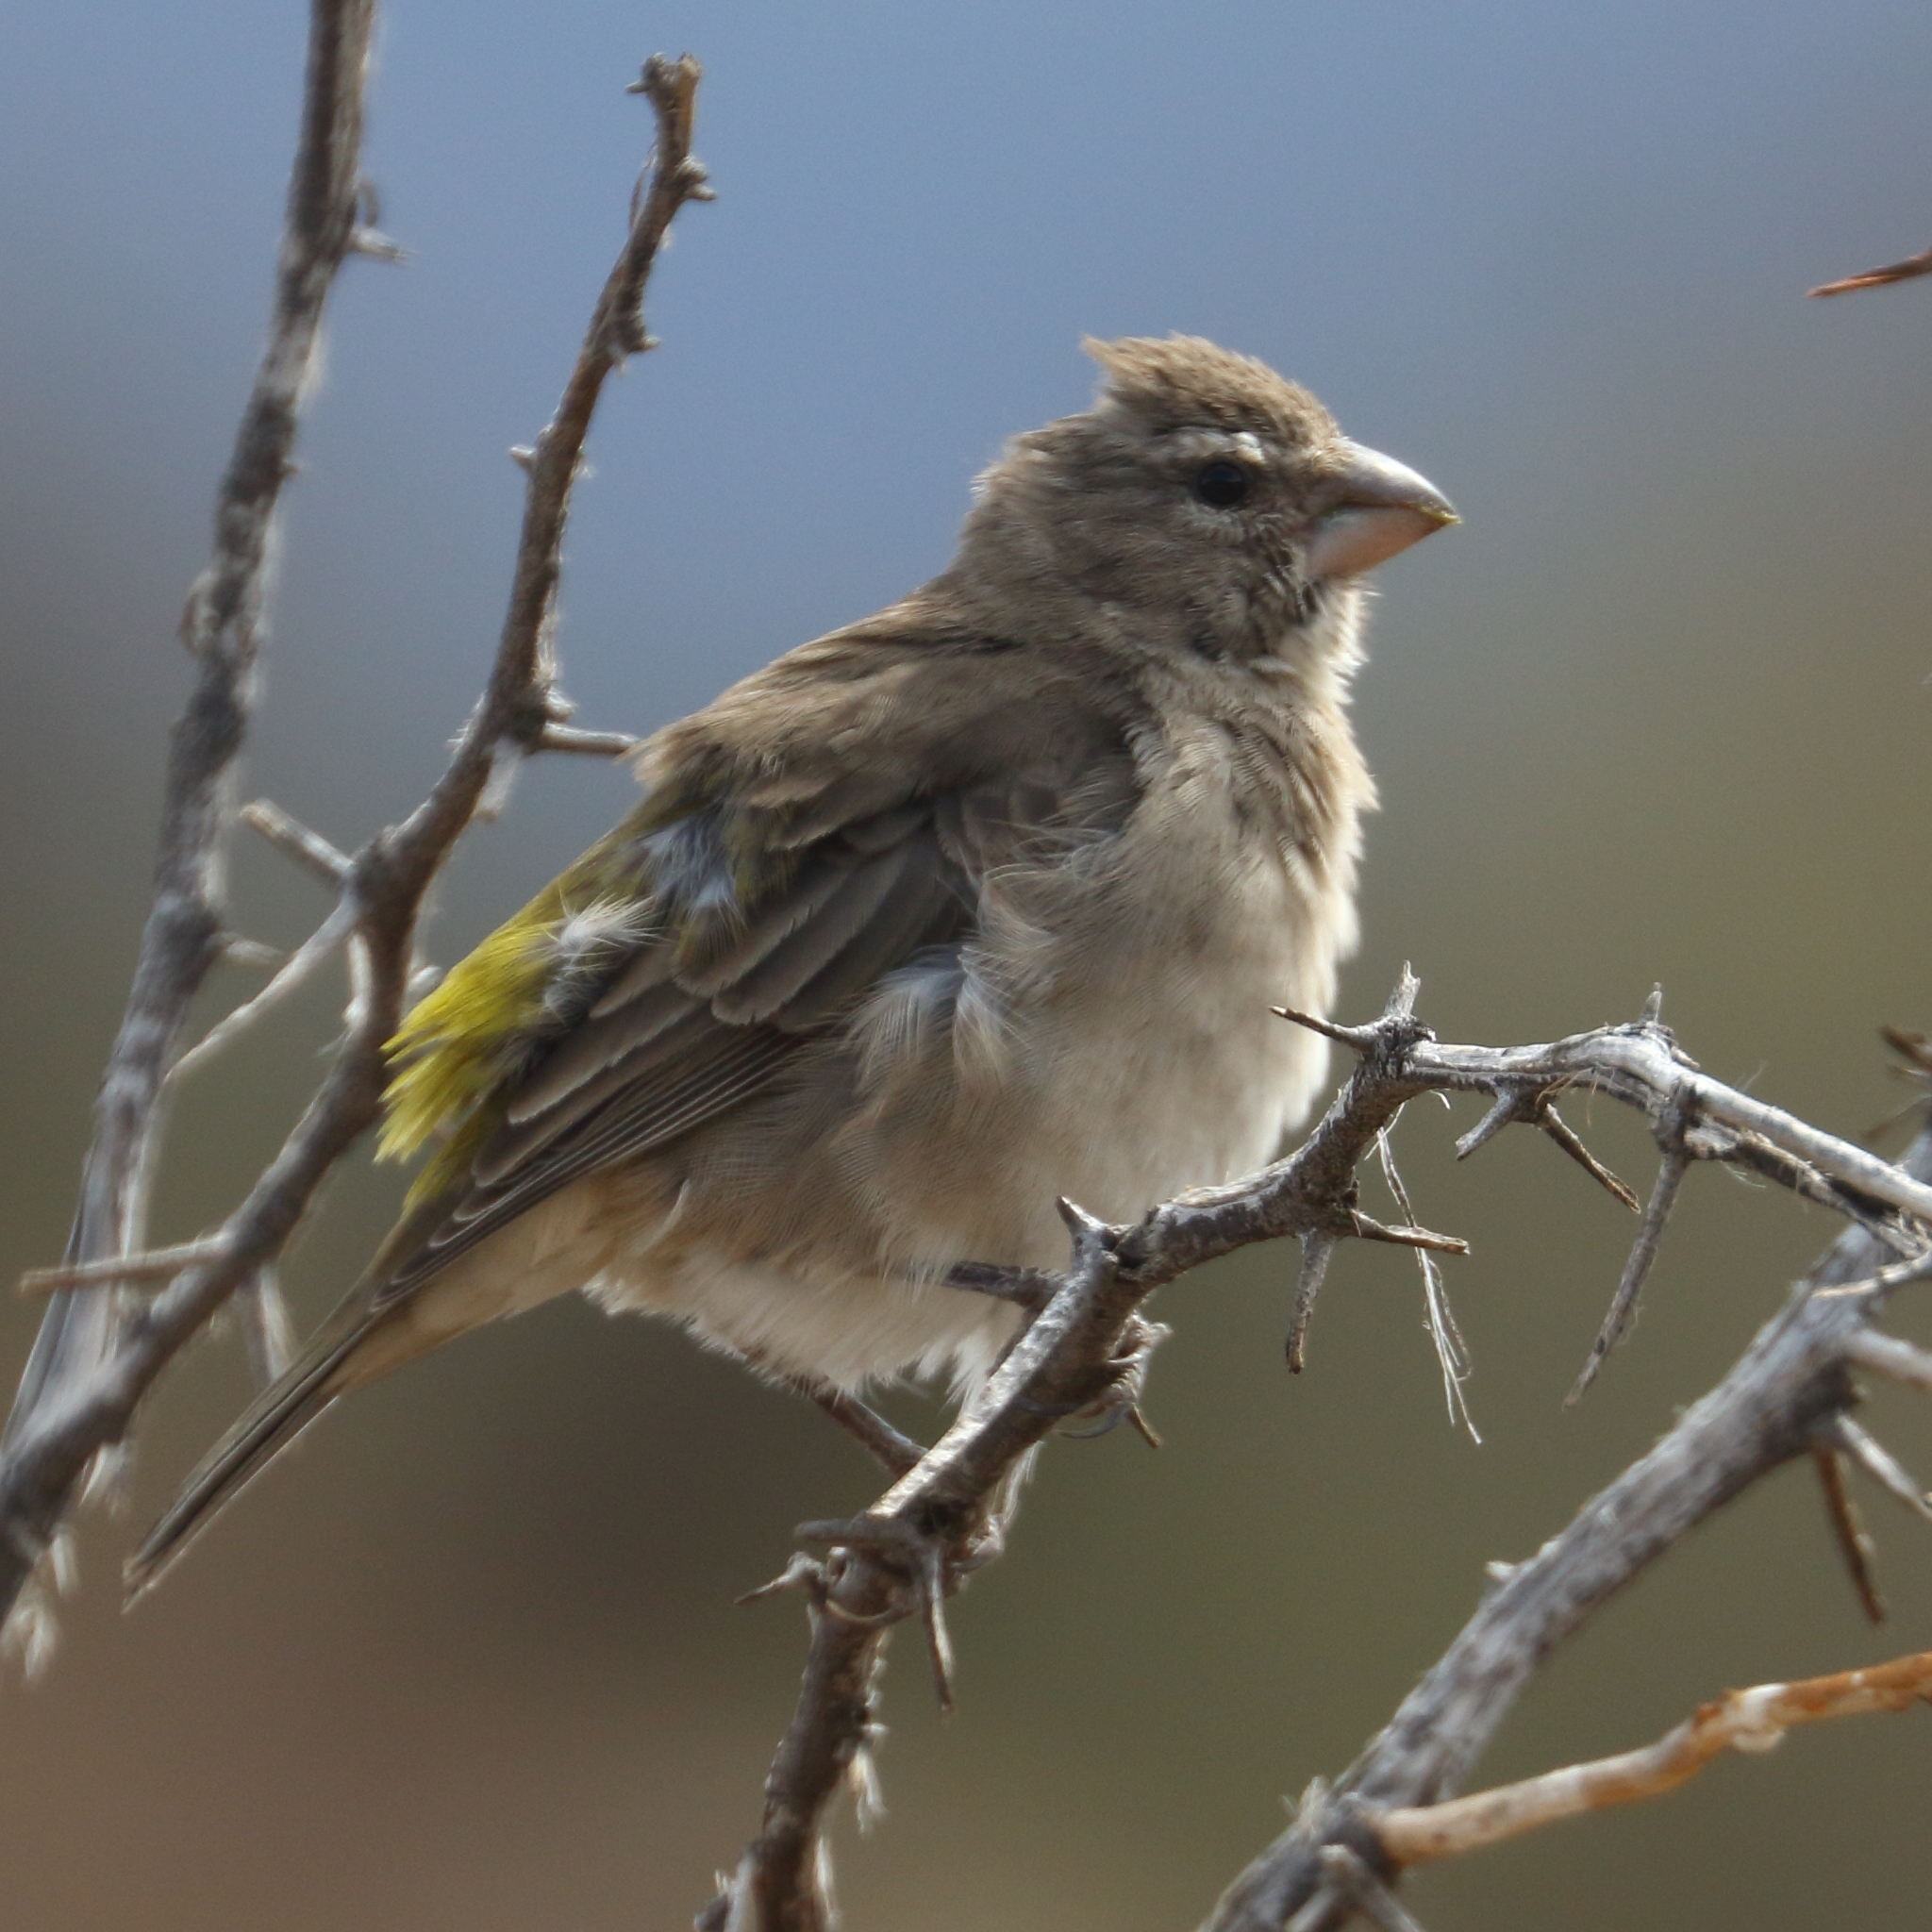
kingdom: Animalia
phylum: Chordata
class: Aves
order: Passeriformes
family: Fringillidae
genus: Crithagra
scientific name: Crithagra albogularis
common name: White-throated canary
